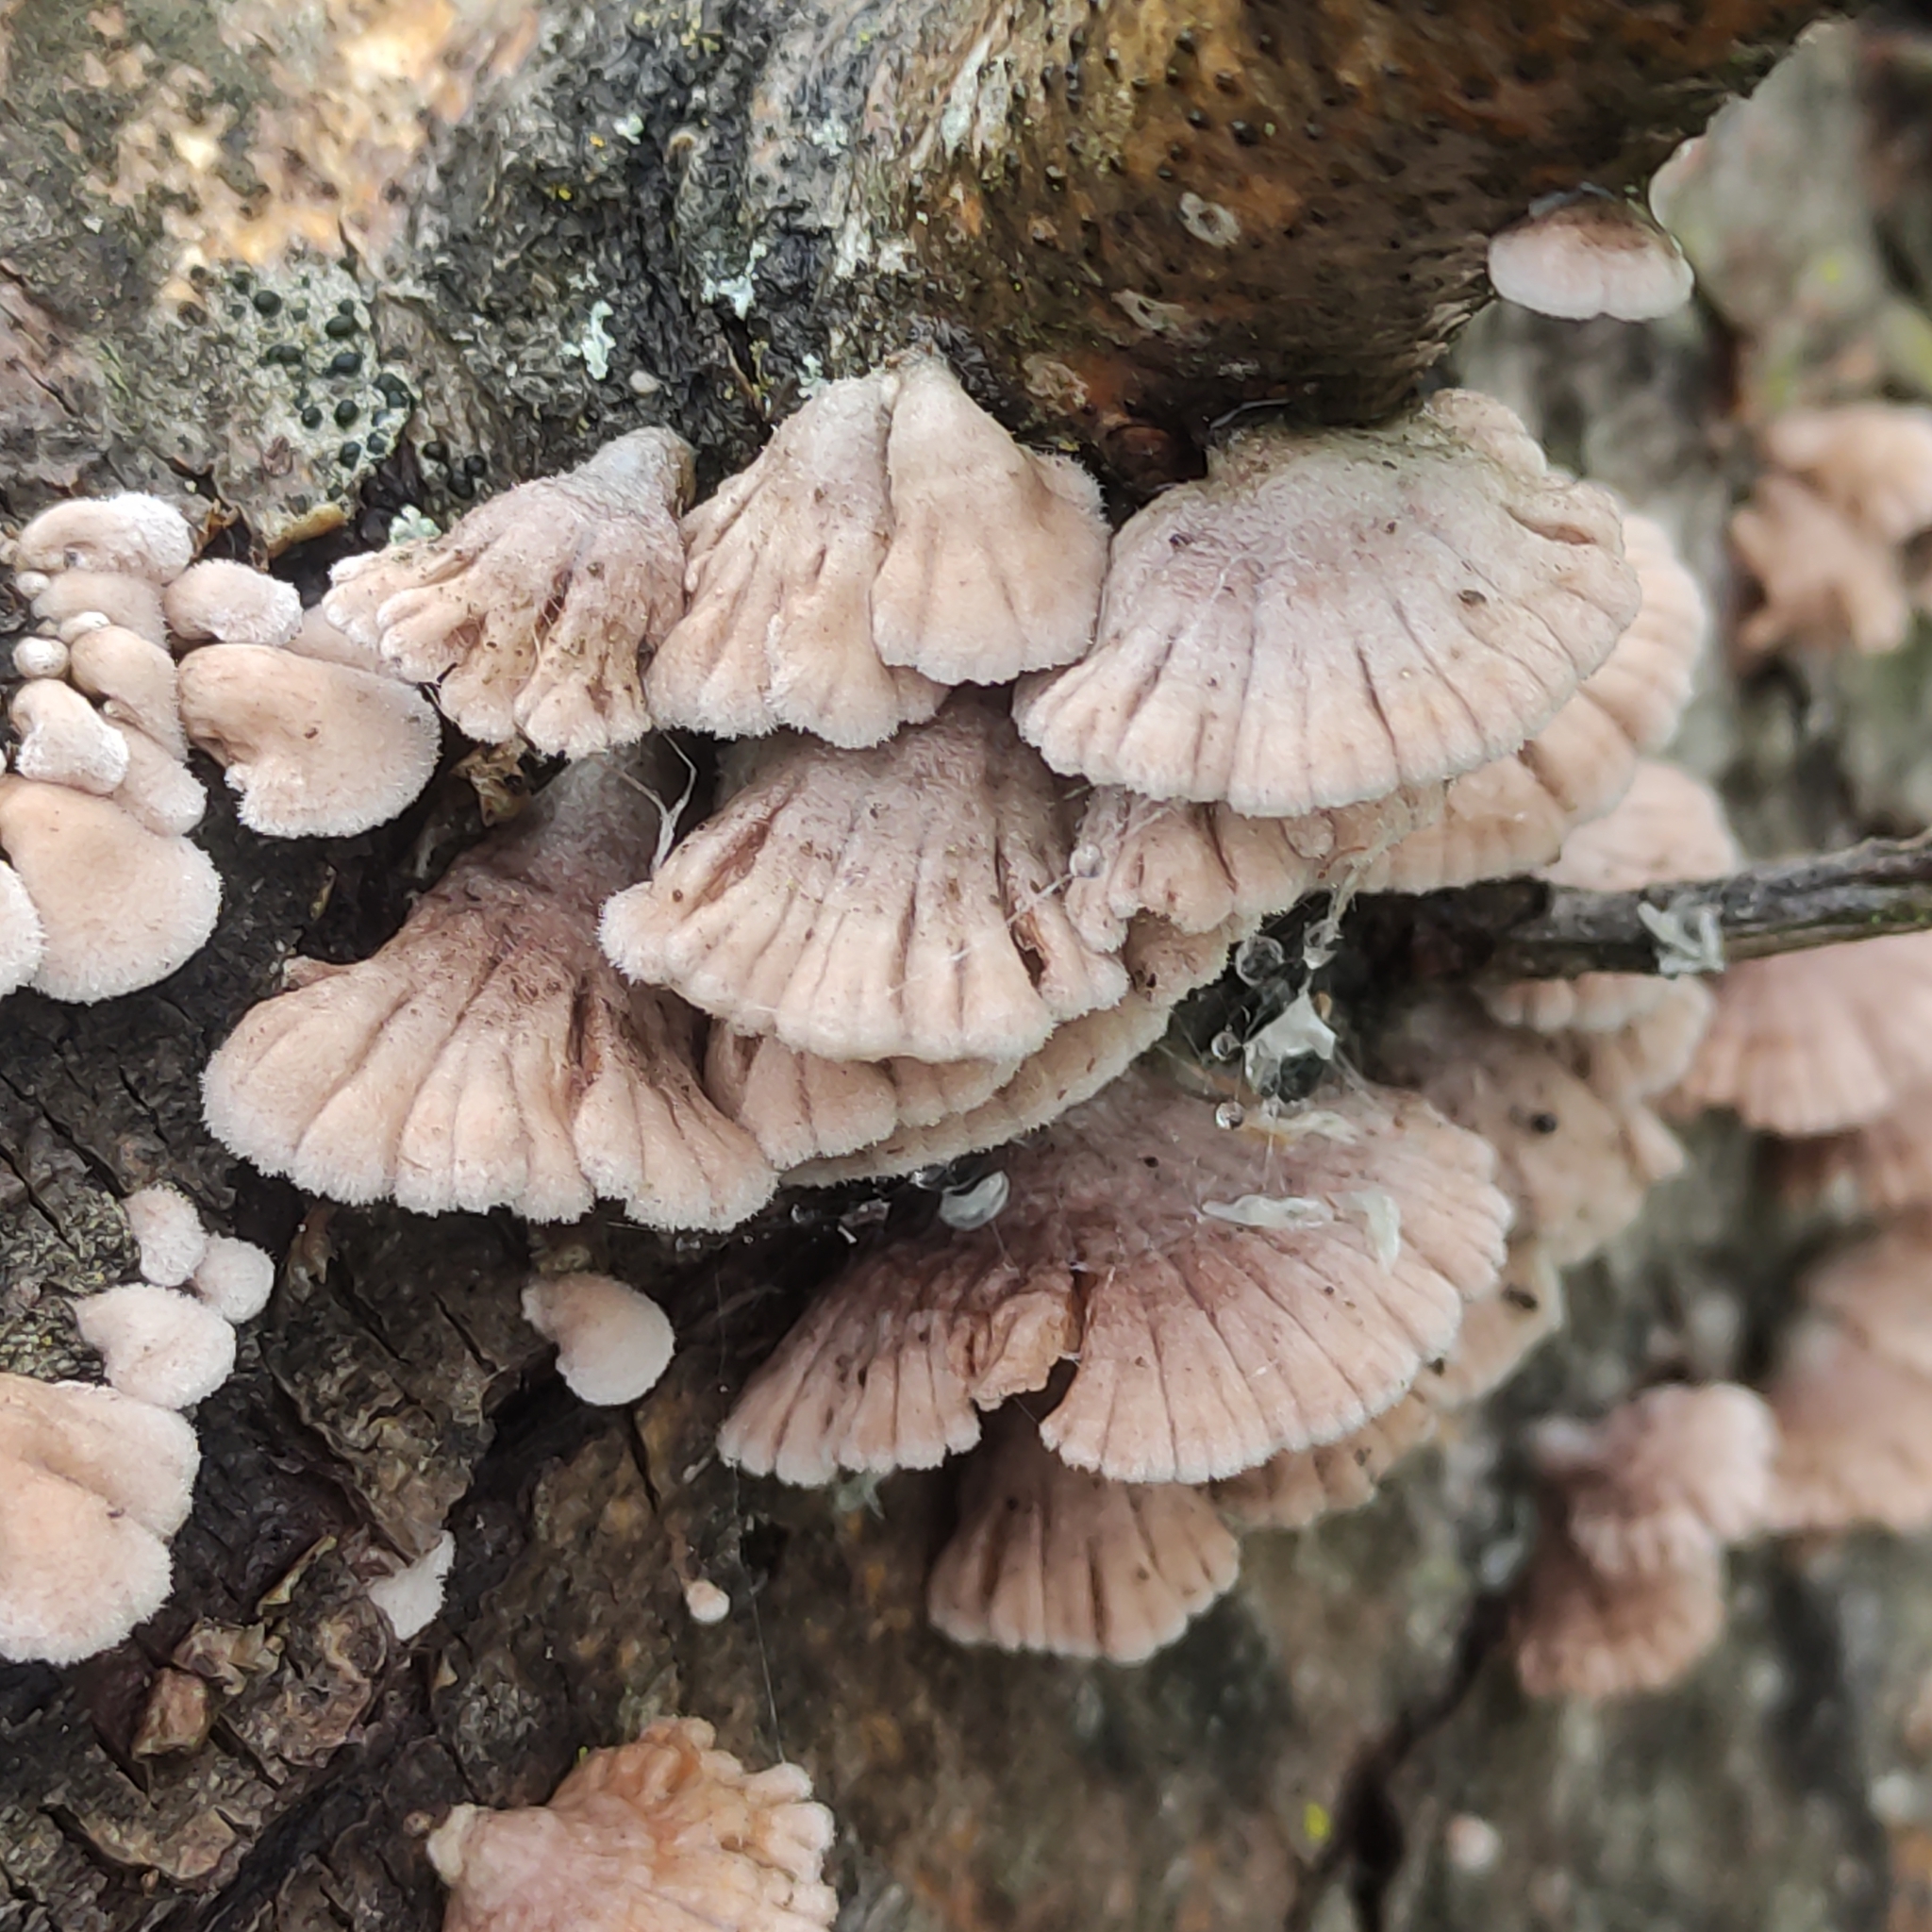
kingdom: Fungi
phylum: Basidiomycota
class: Agaricomycetes
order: Agaricales
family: Schizophyllaceae
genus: Schizophyllum
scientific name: Schizophyllum commune
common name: Common porecrust
